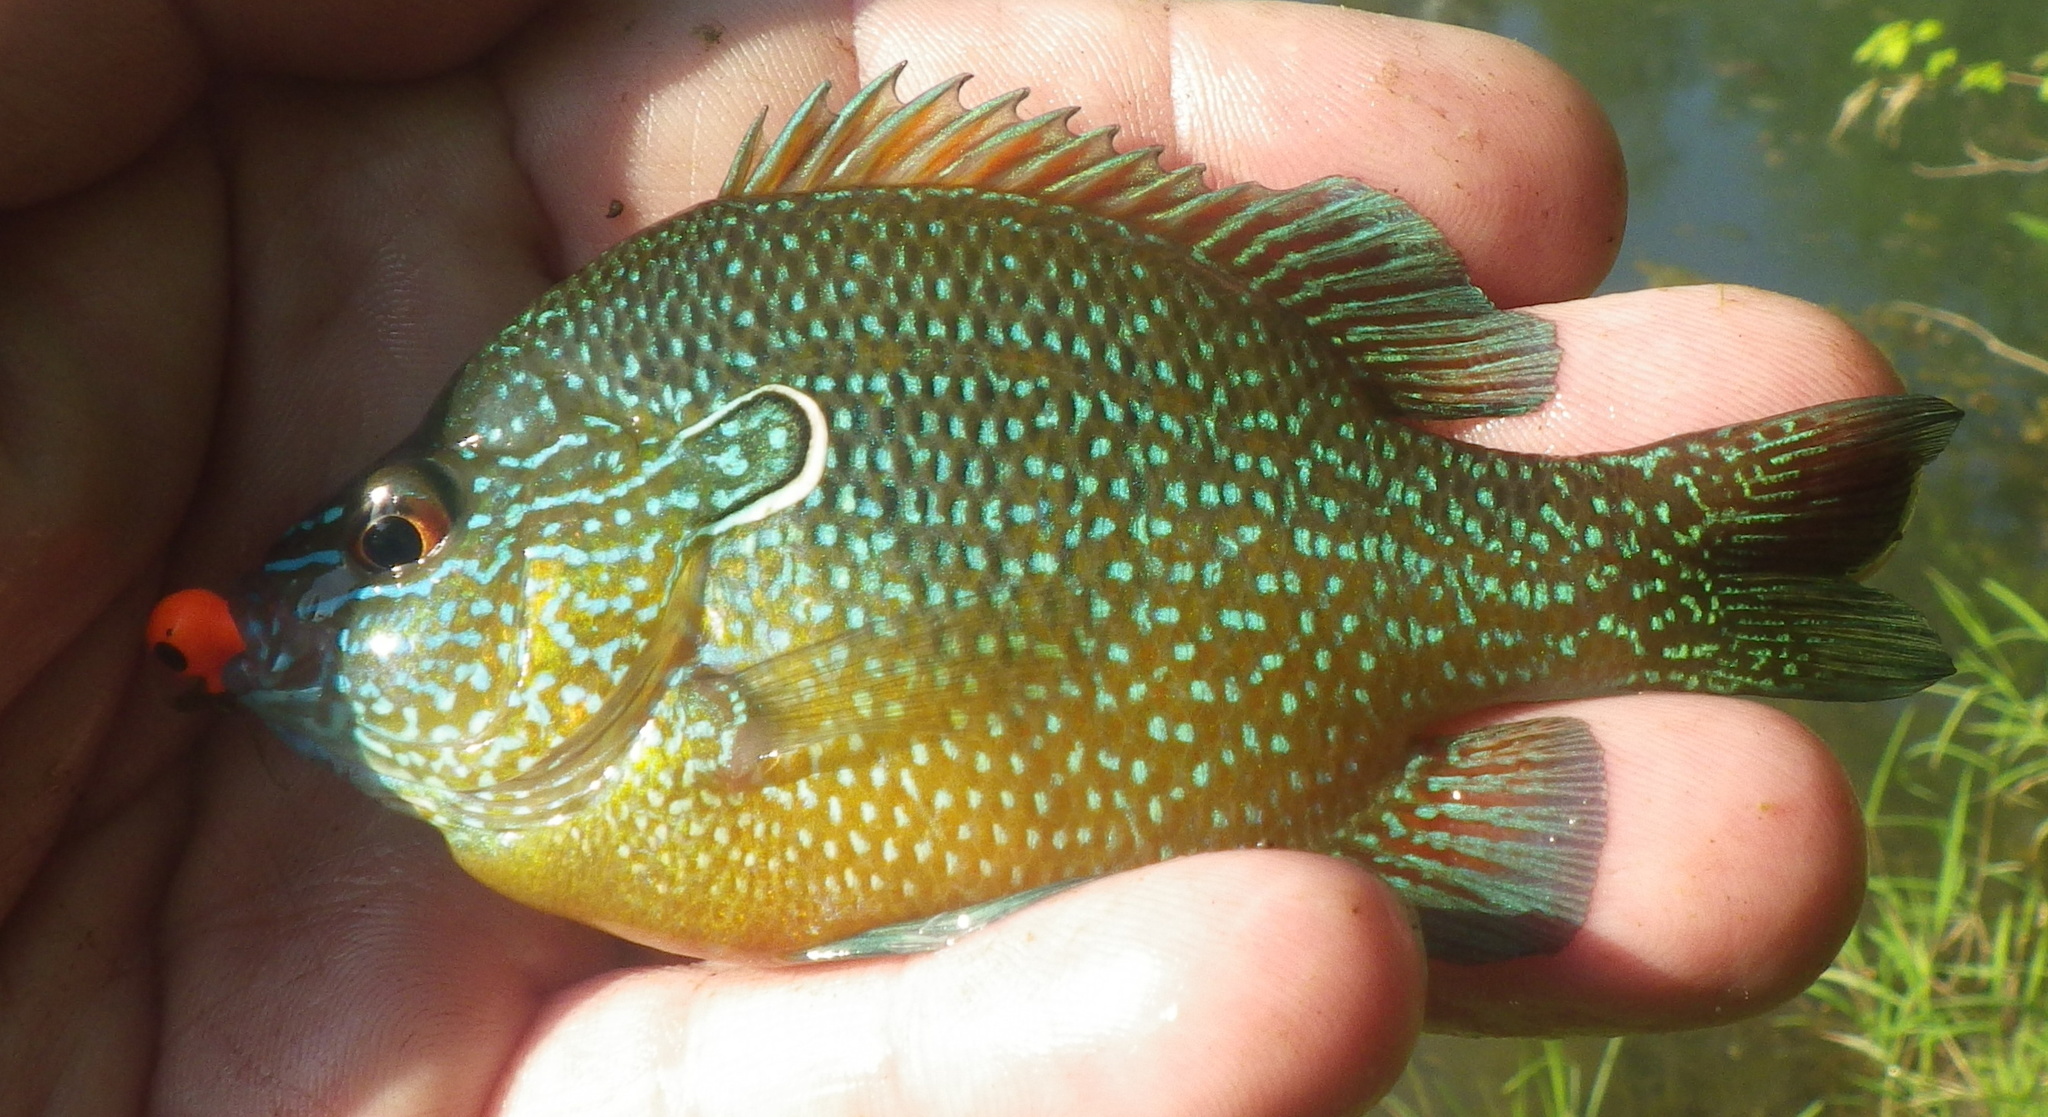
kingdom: Animalia
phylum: Chordata
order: Perciformes
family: Centrarchidae
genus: Lepomis
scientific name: Lepomis marginatus
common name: Dollar sunfish
